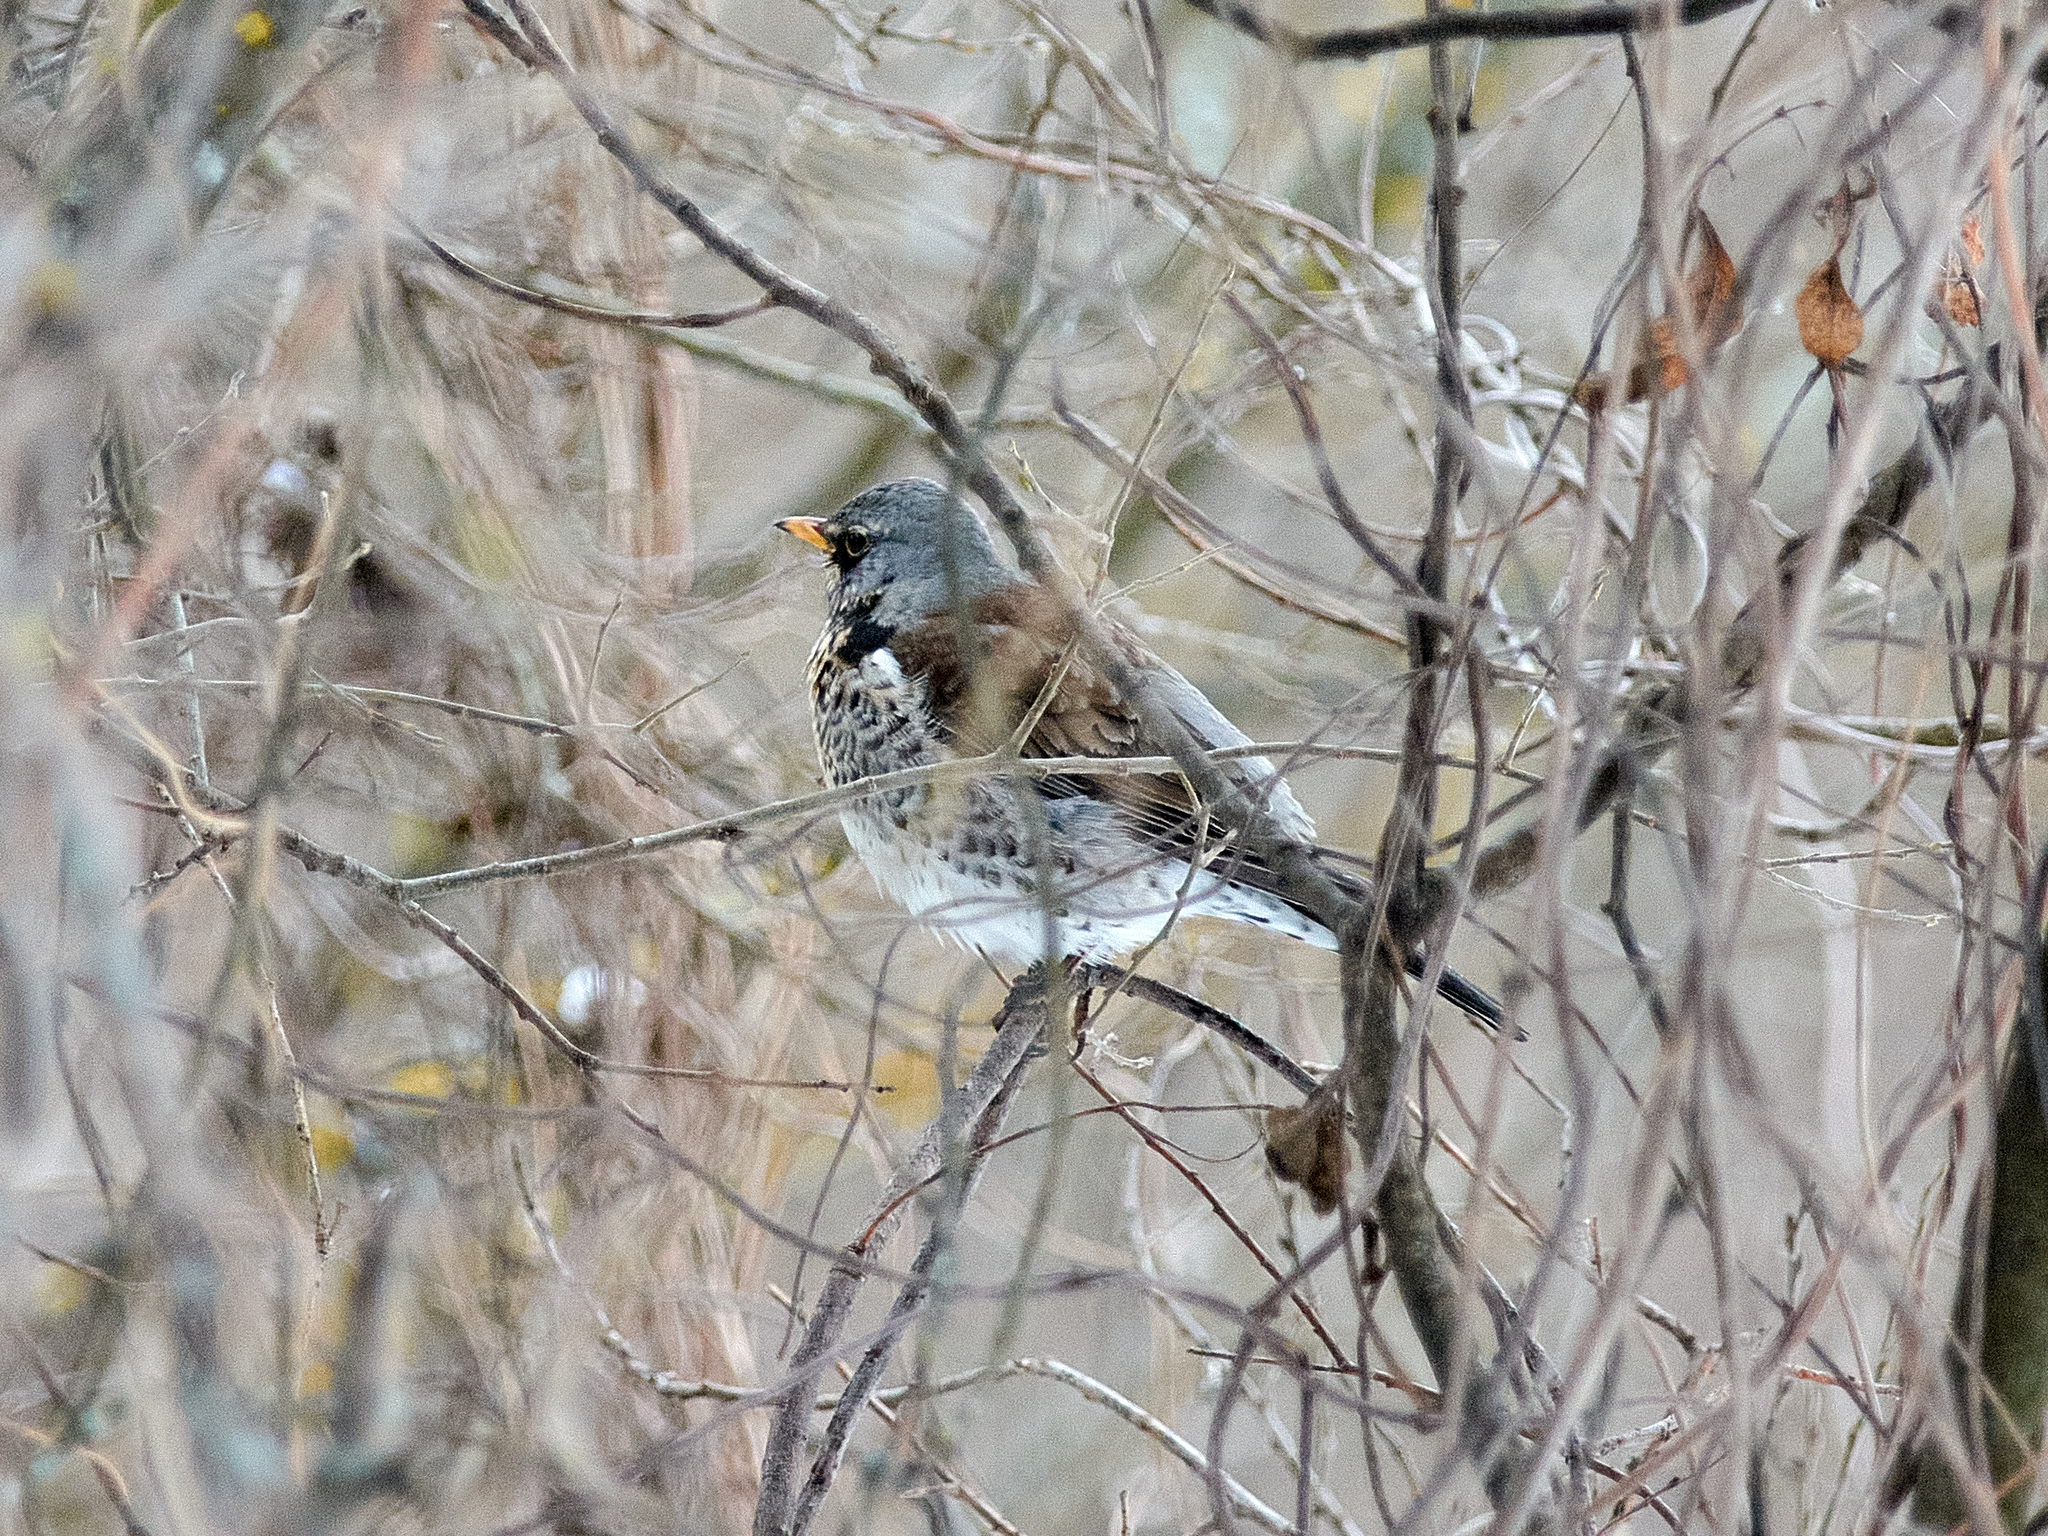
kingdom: Animalia
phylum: Chordata
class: Aves
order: Passeriformes
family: Turdidae
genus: Turdus
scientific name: Turdus pilaris
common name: Fieldfare
